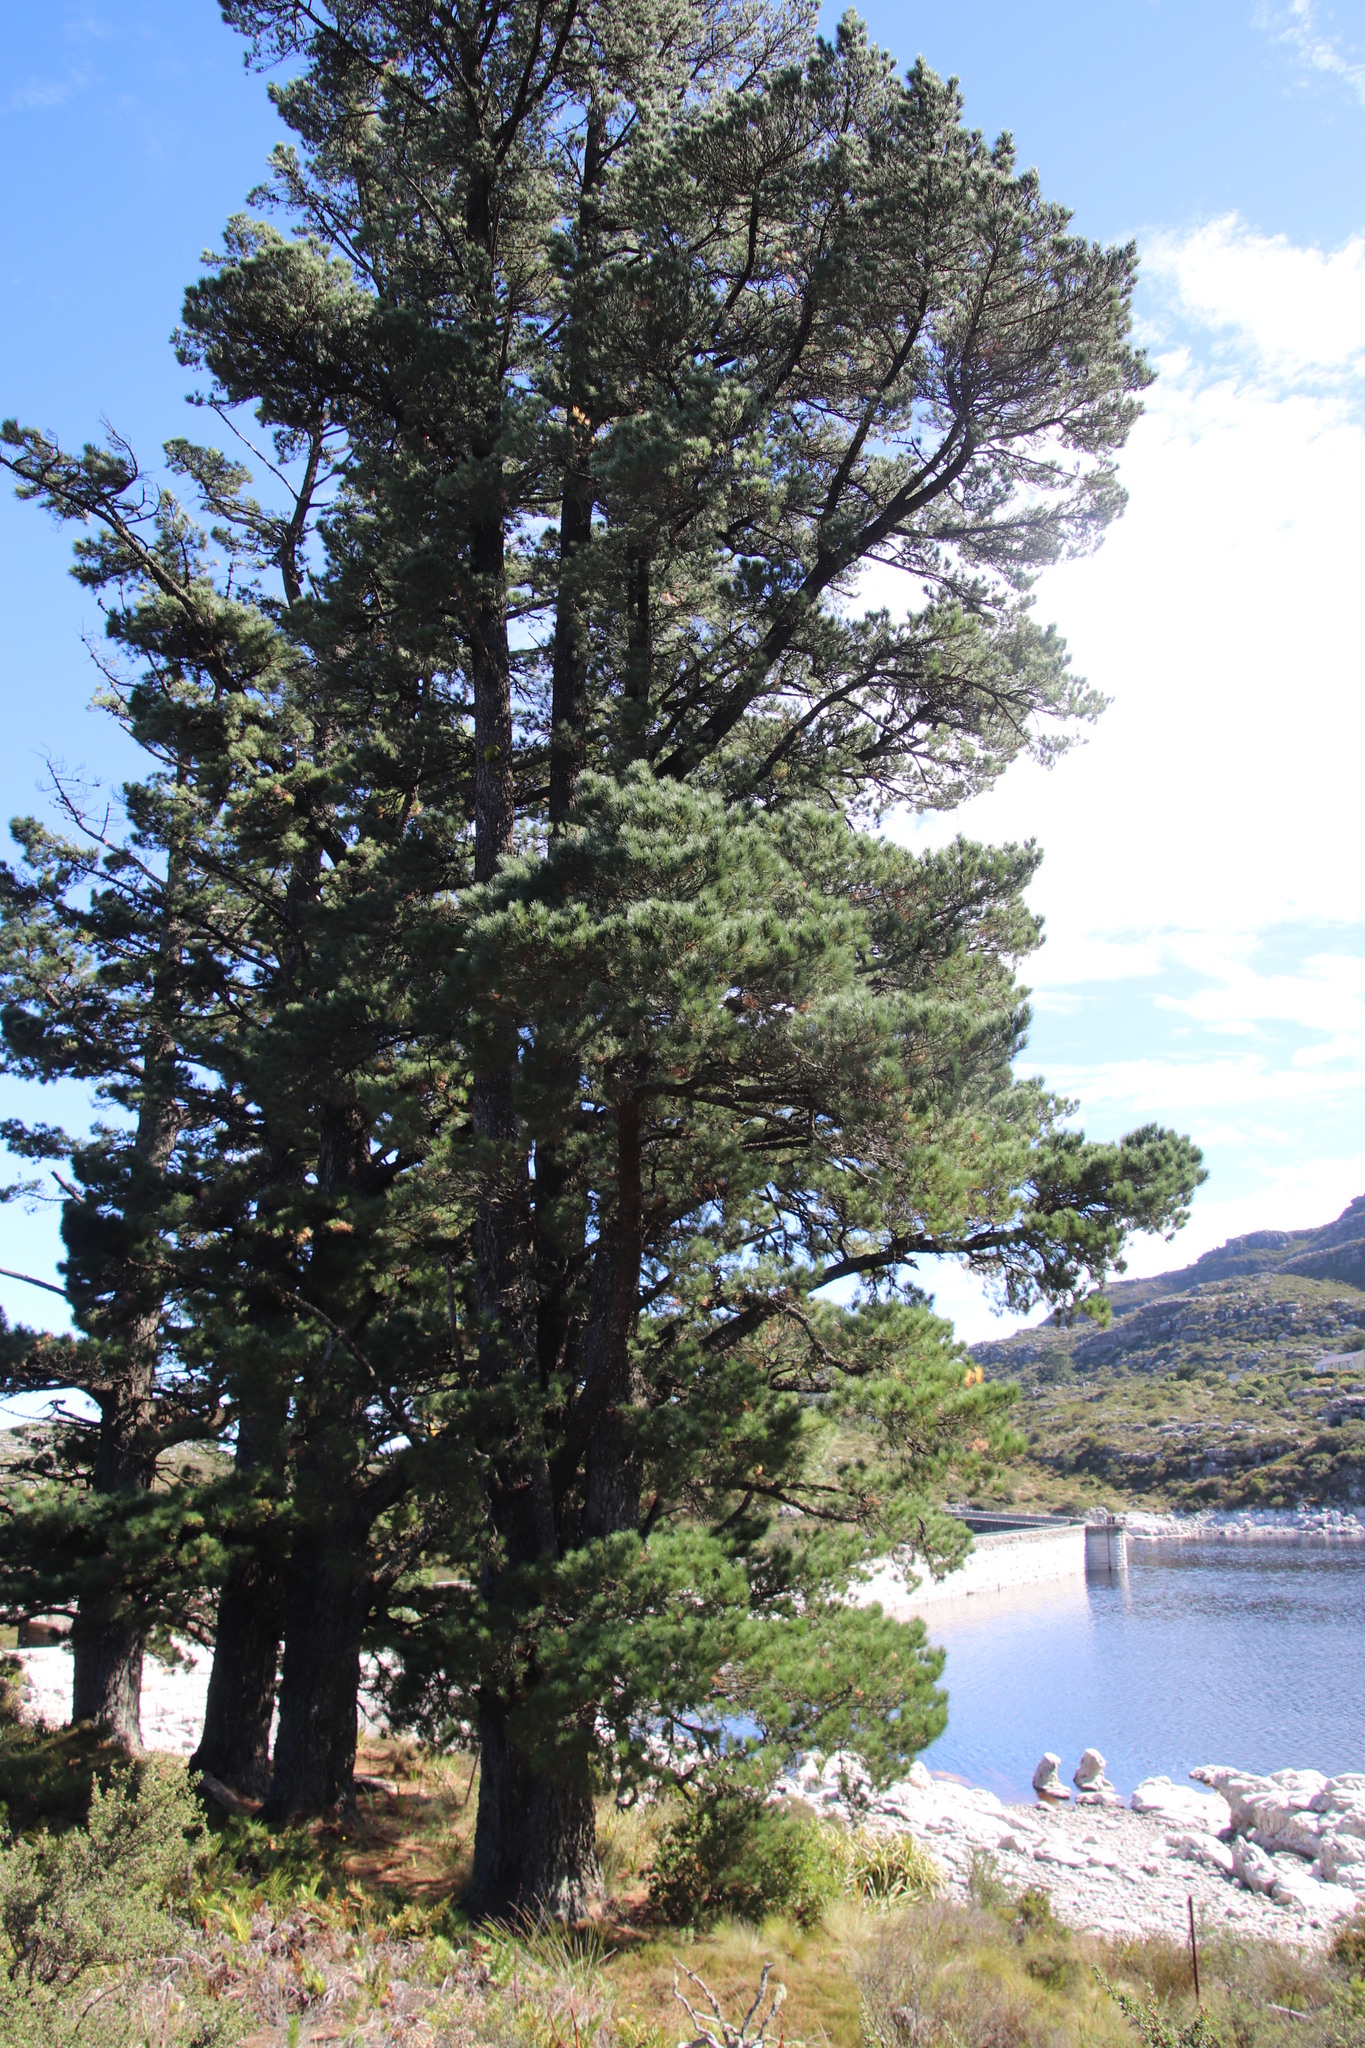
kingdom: Plantae
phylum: Tracheophyta
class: Pinopsida
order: Pinales
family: Pinaceae
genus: Pinus
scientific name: Pinus radiata
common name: Monterey pine
